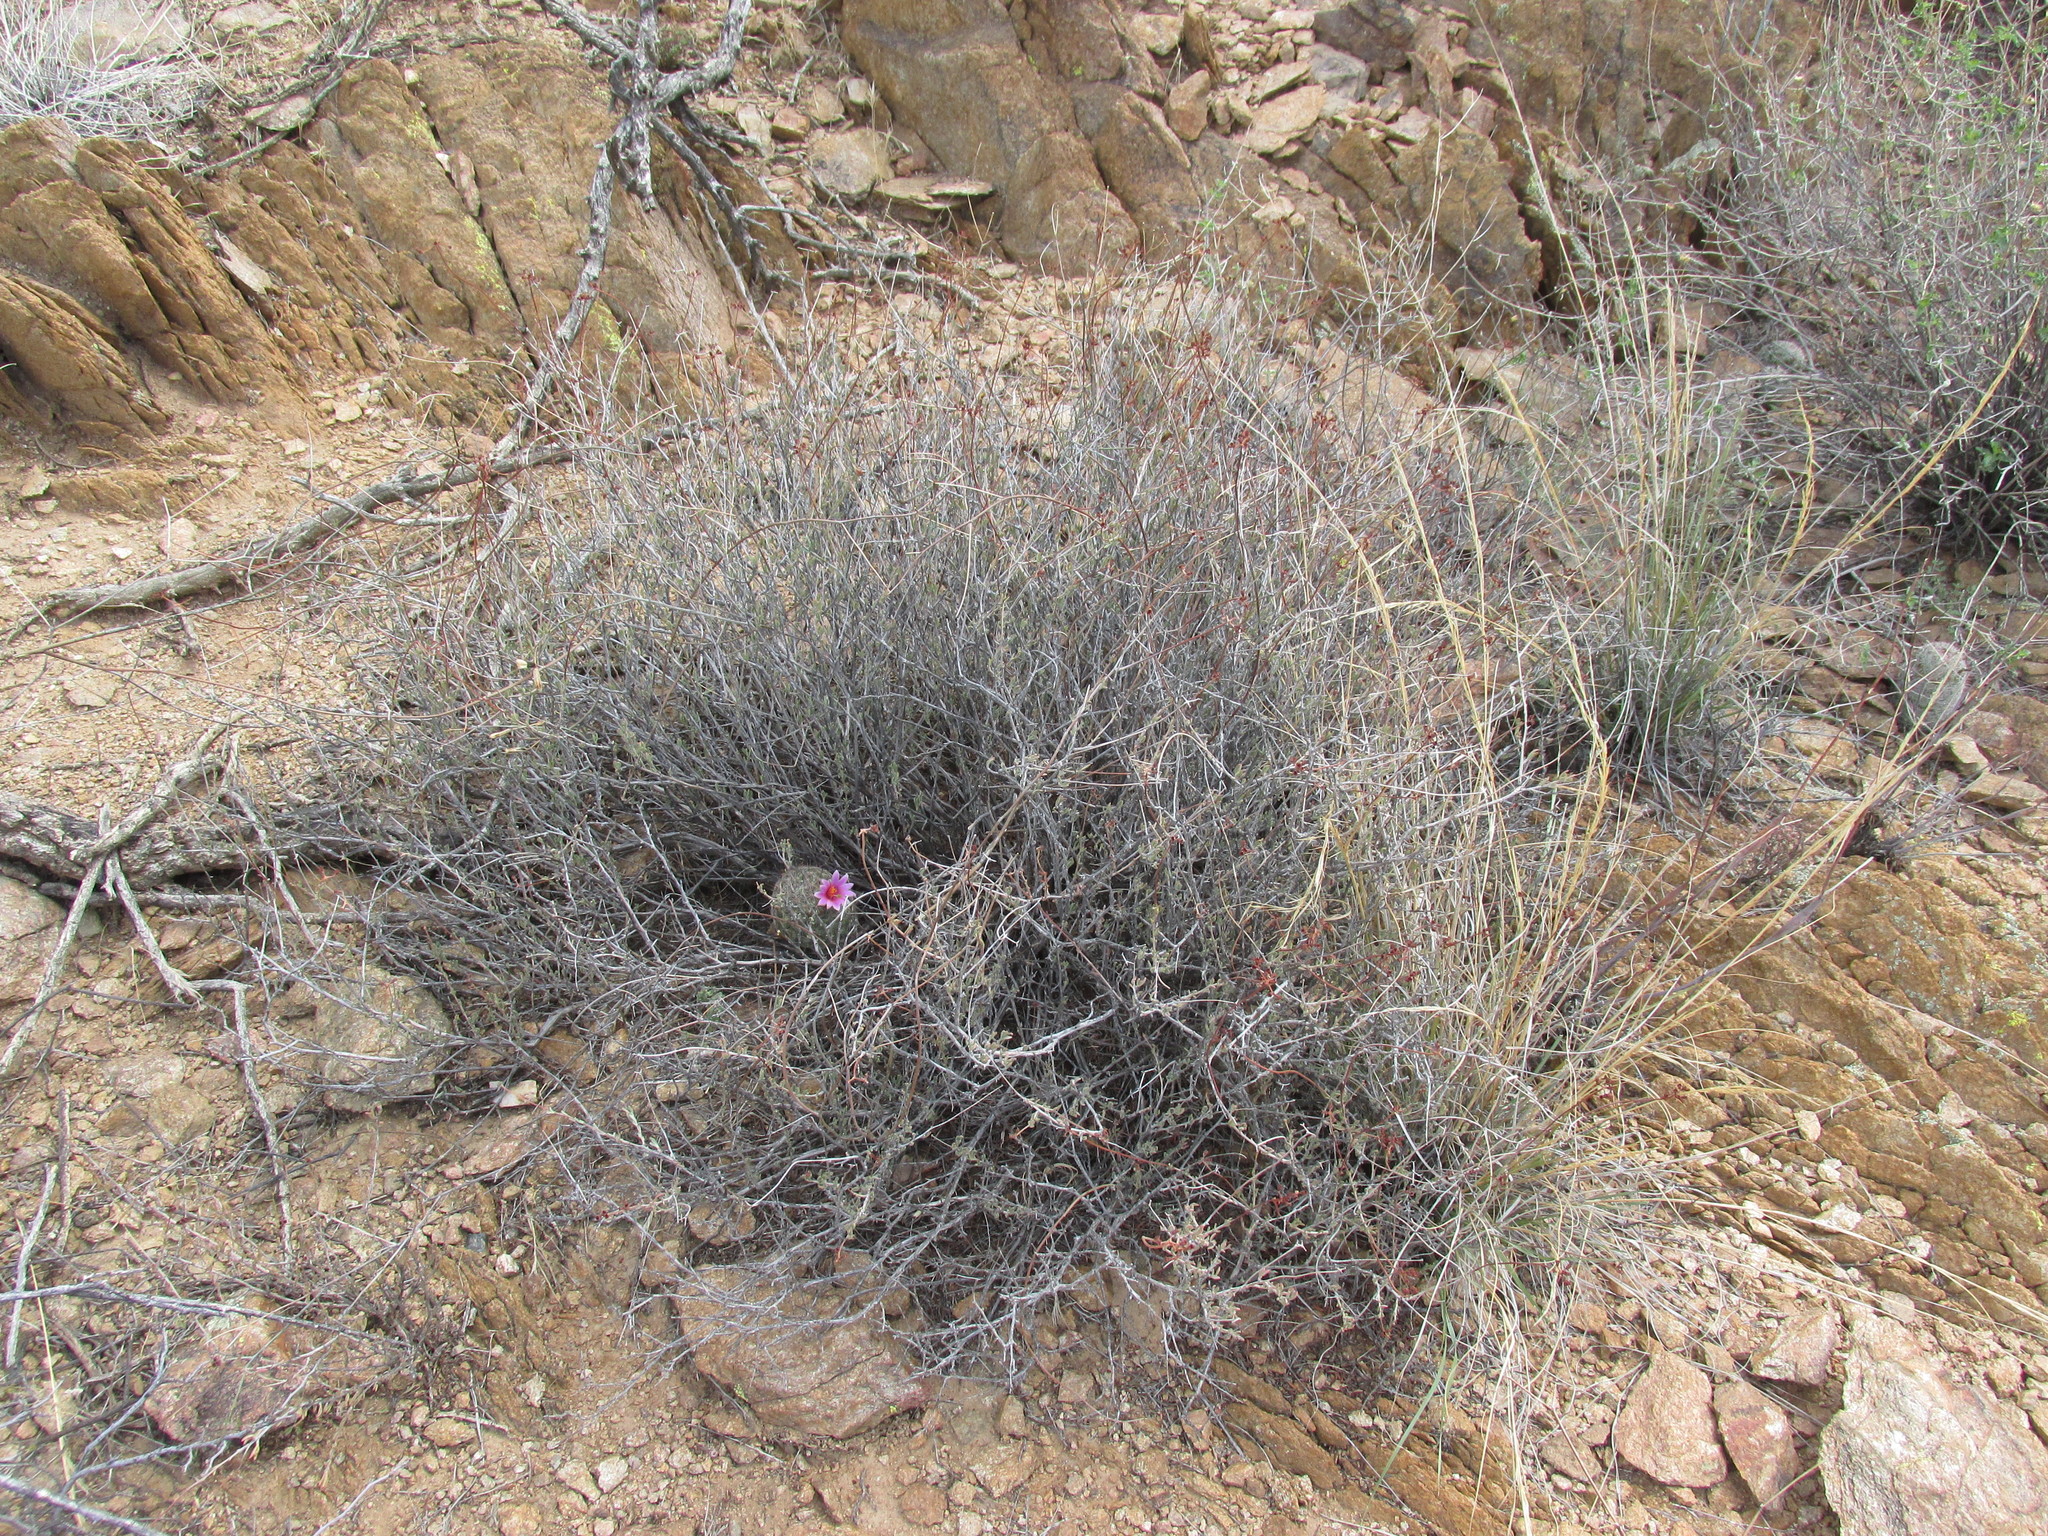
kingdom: Plantae
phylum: Tracheophyta
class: Magnoliopsida
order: Caryophyllales
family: Cactaceae
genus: Cochemiea
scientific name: Cochemiea grahamii
